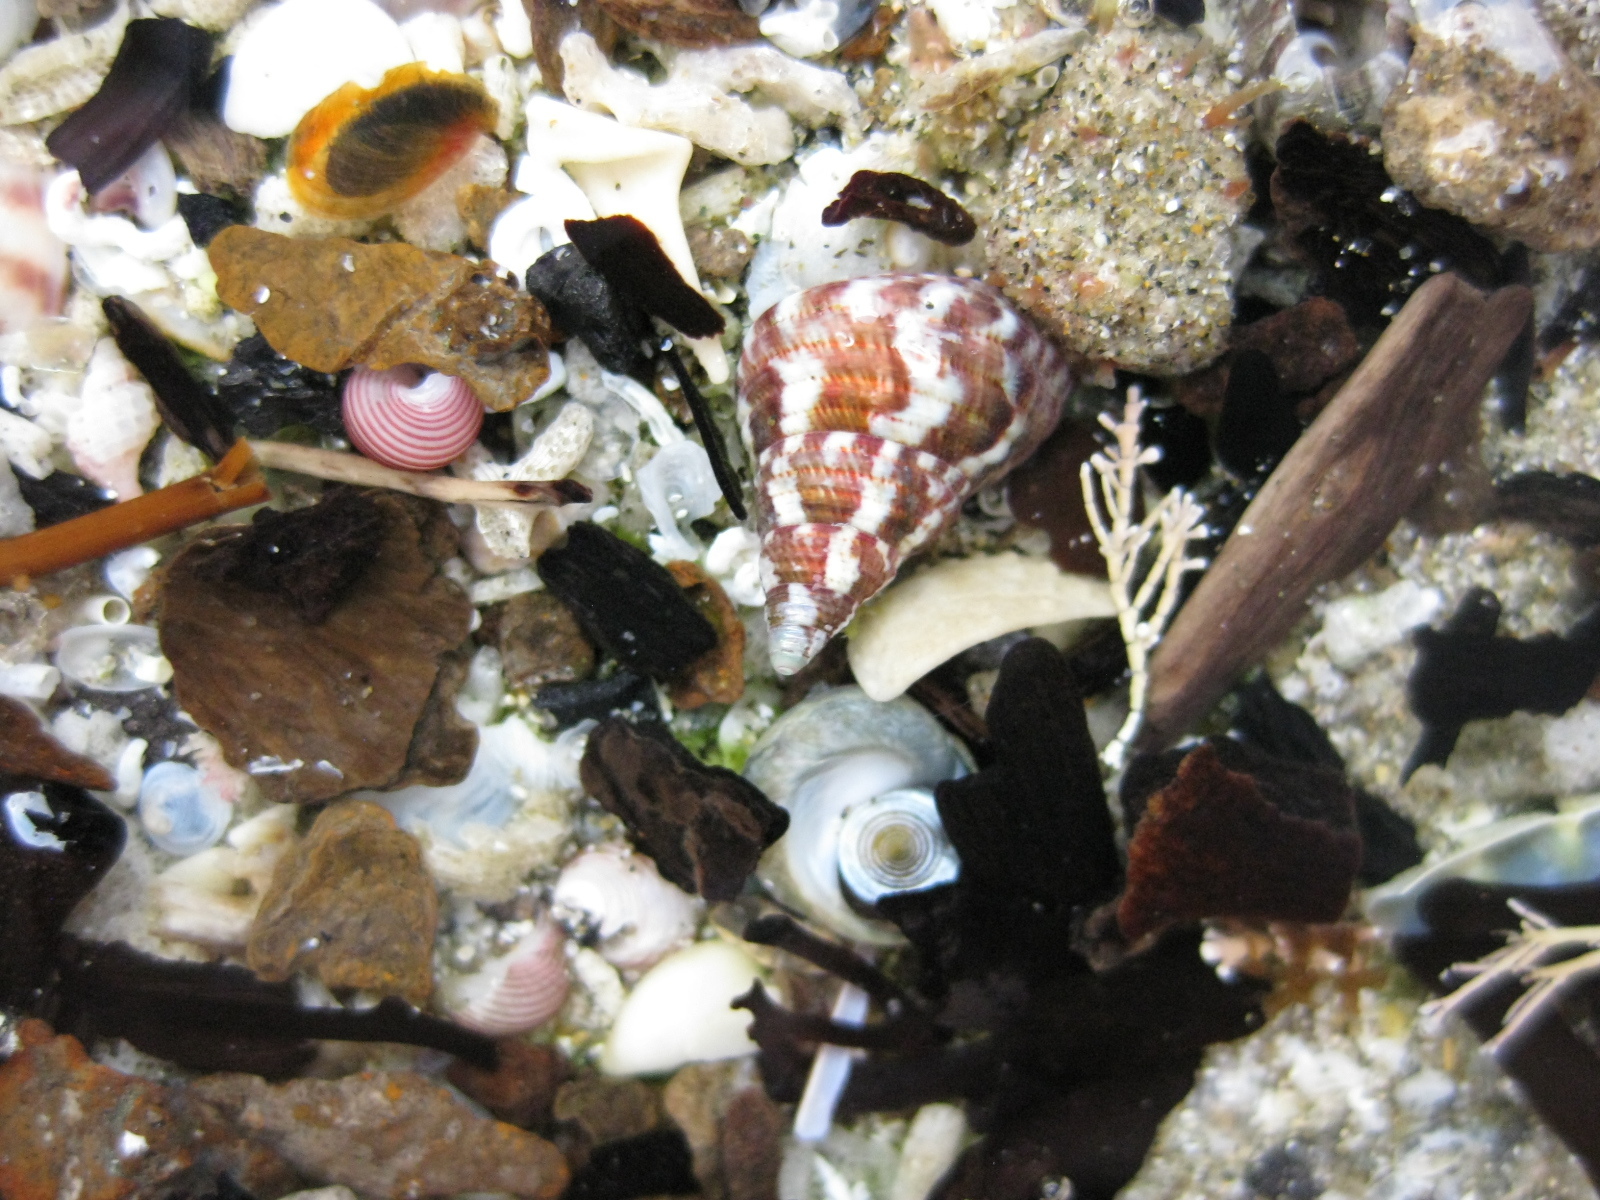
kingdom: Animalia
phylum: Mollusca
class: Gastropoda
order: Trochida
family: Trochidae
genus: Micrelenchus
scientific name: Micrelenchus purpureus
